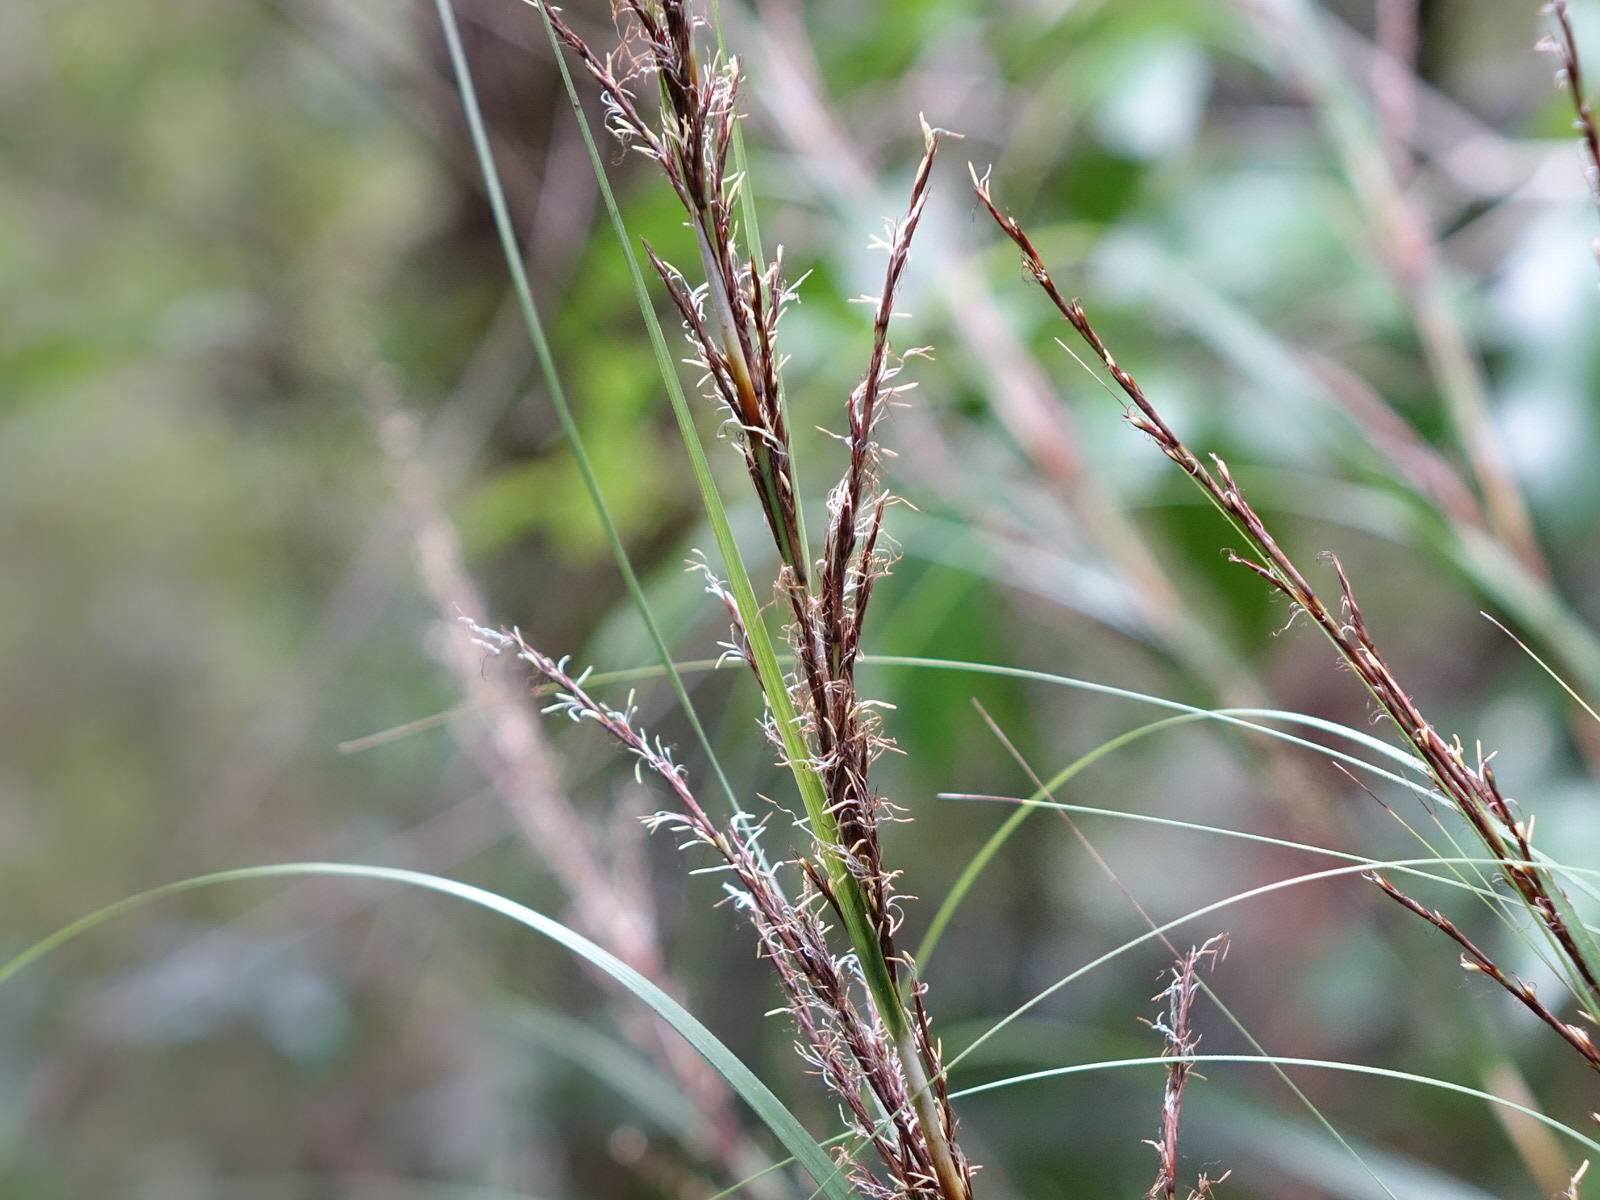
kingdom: Plantae
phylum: Tracheophyta
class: Liliopsida
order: Poales
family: Cyperaceae
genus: Gahnia
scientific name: Gahnia lacera
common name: Sawsedge
